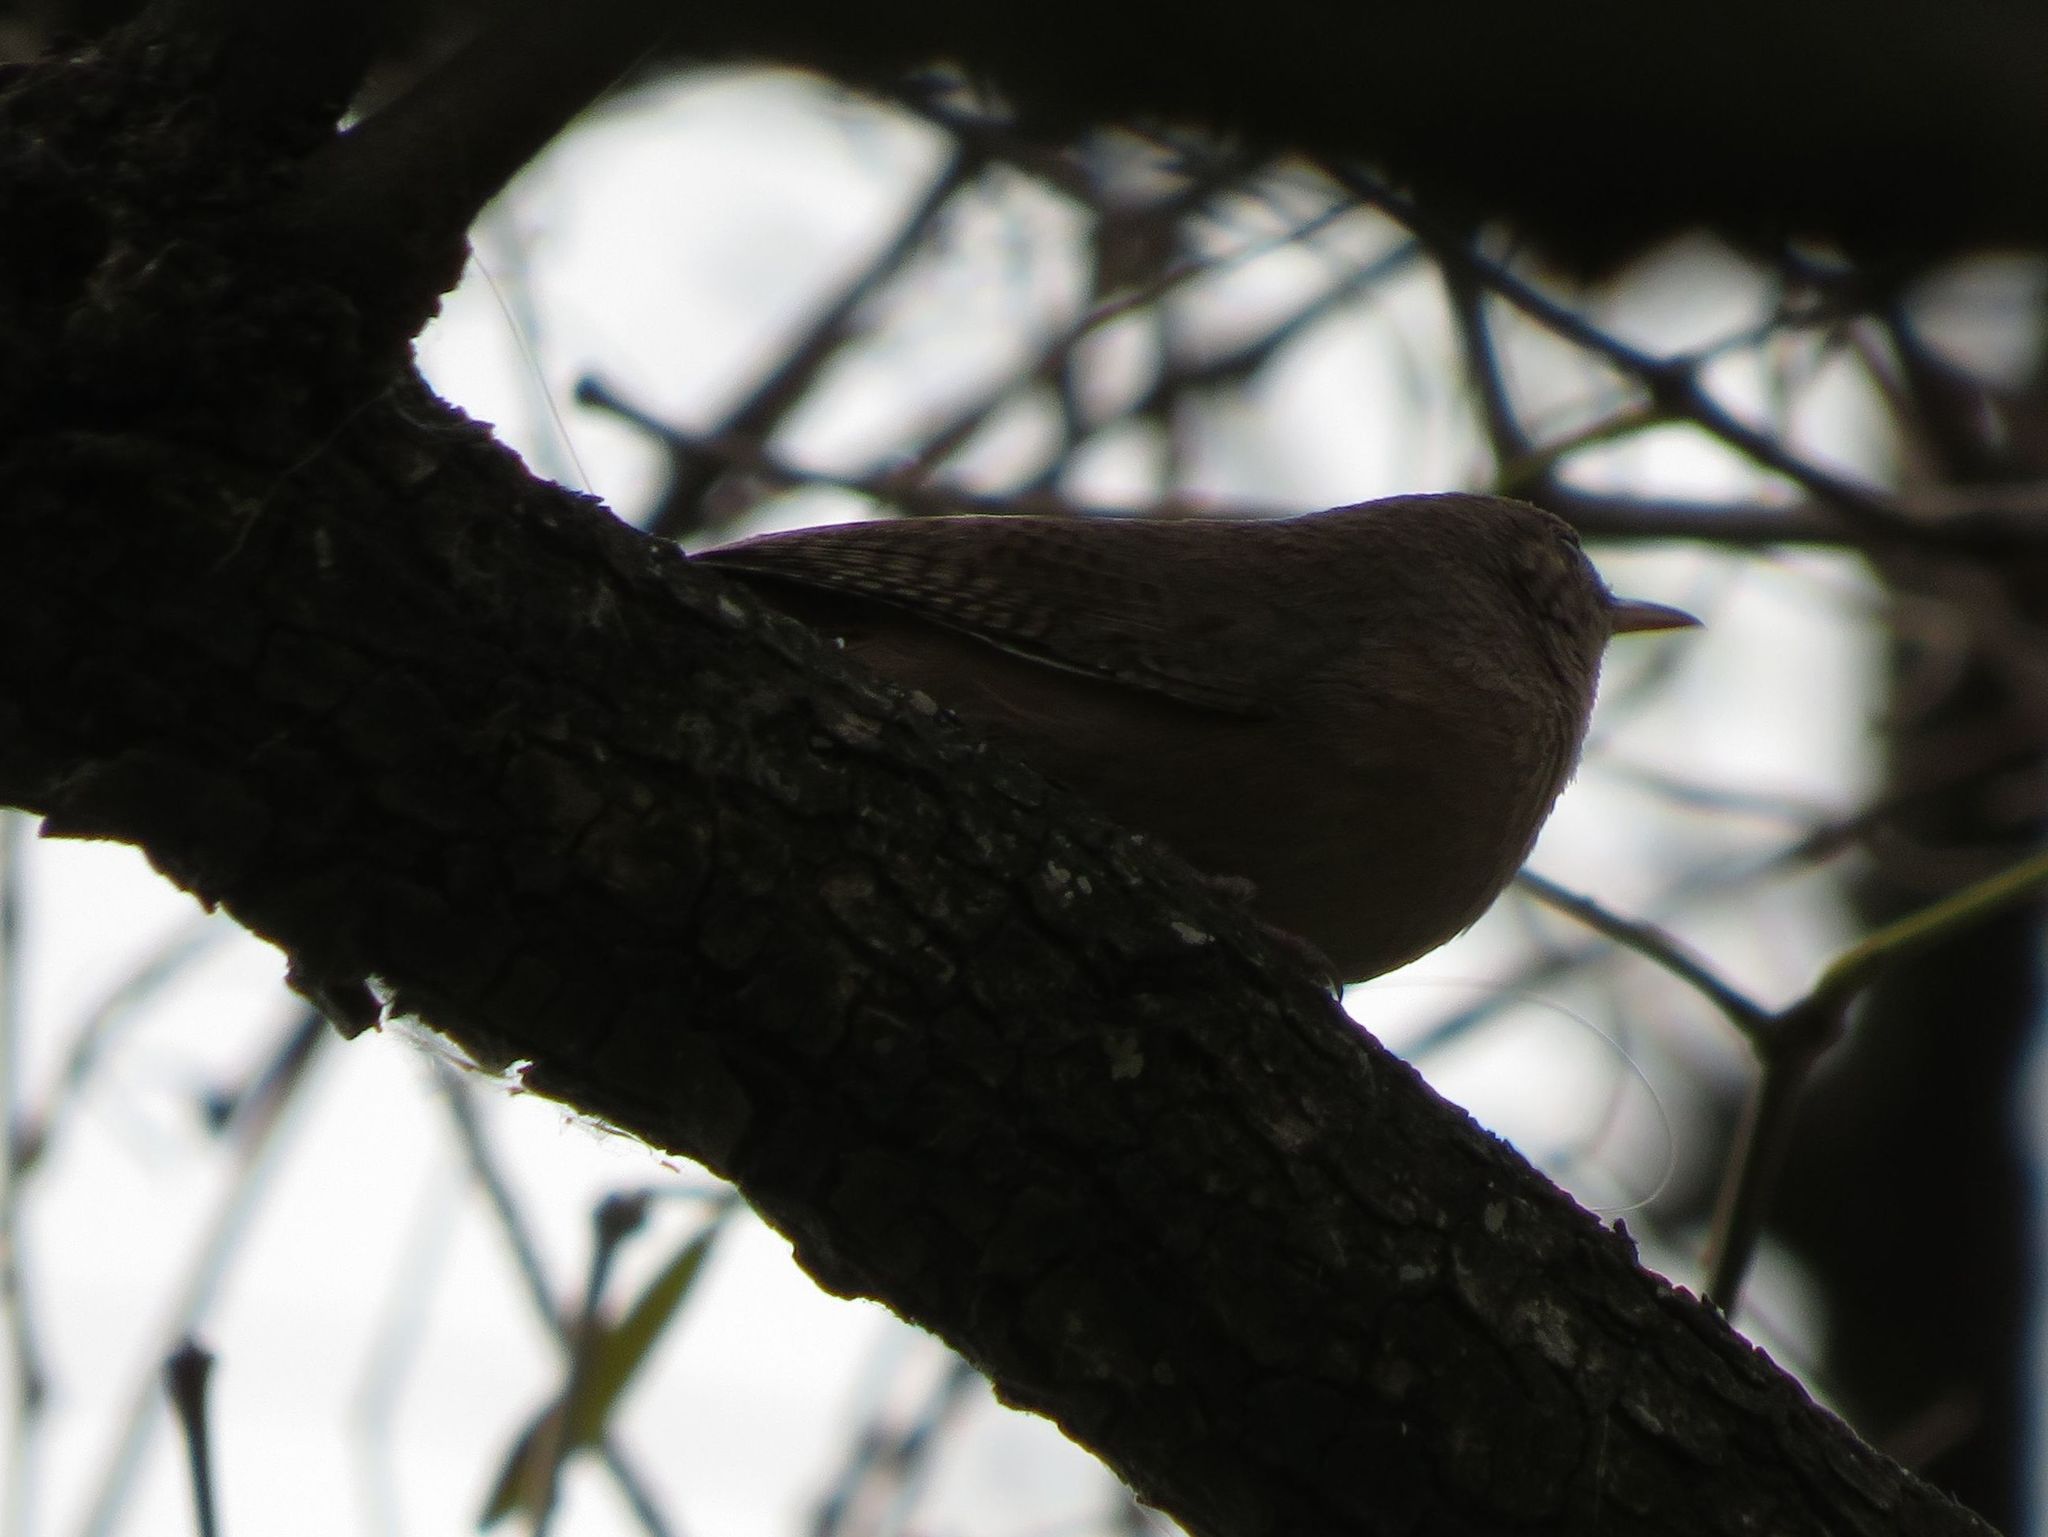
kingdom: Animalia
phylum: Chordata
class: Aves
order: Passeriformes
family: Troglodytidae
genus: Troglodytes
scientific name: Troglodytes aedon
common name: House wren
